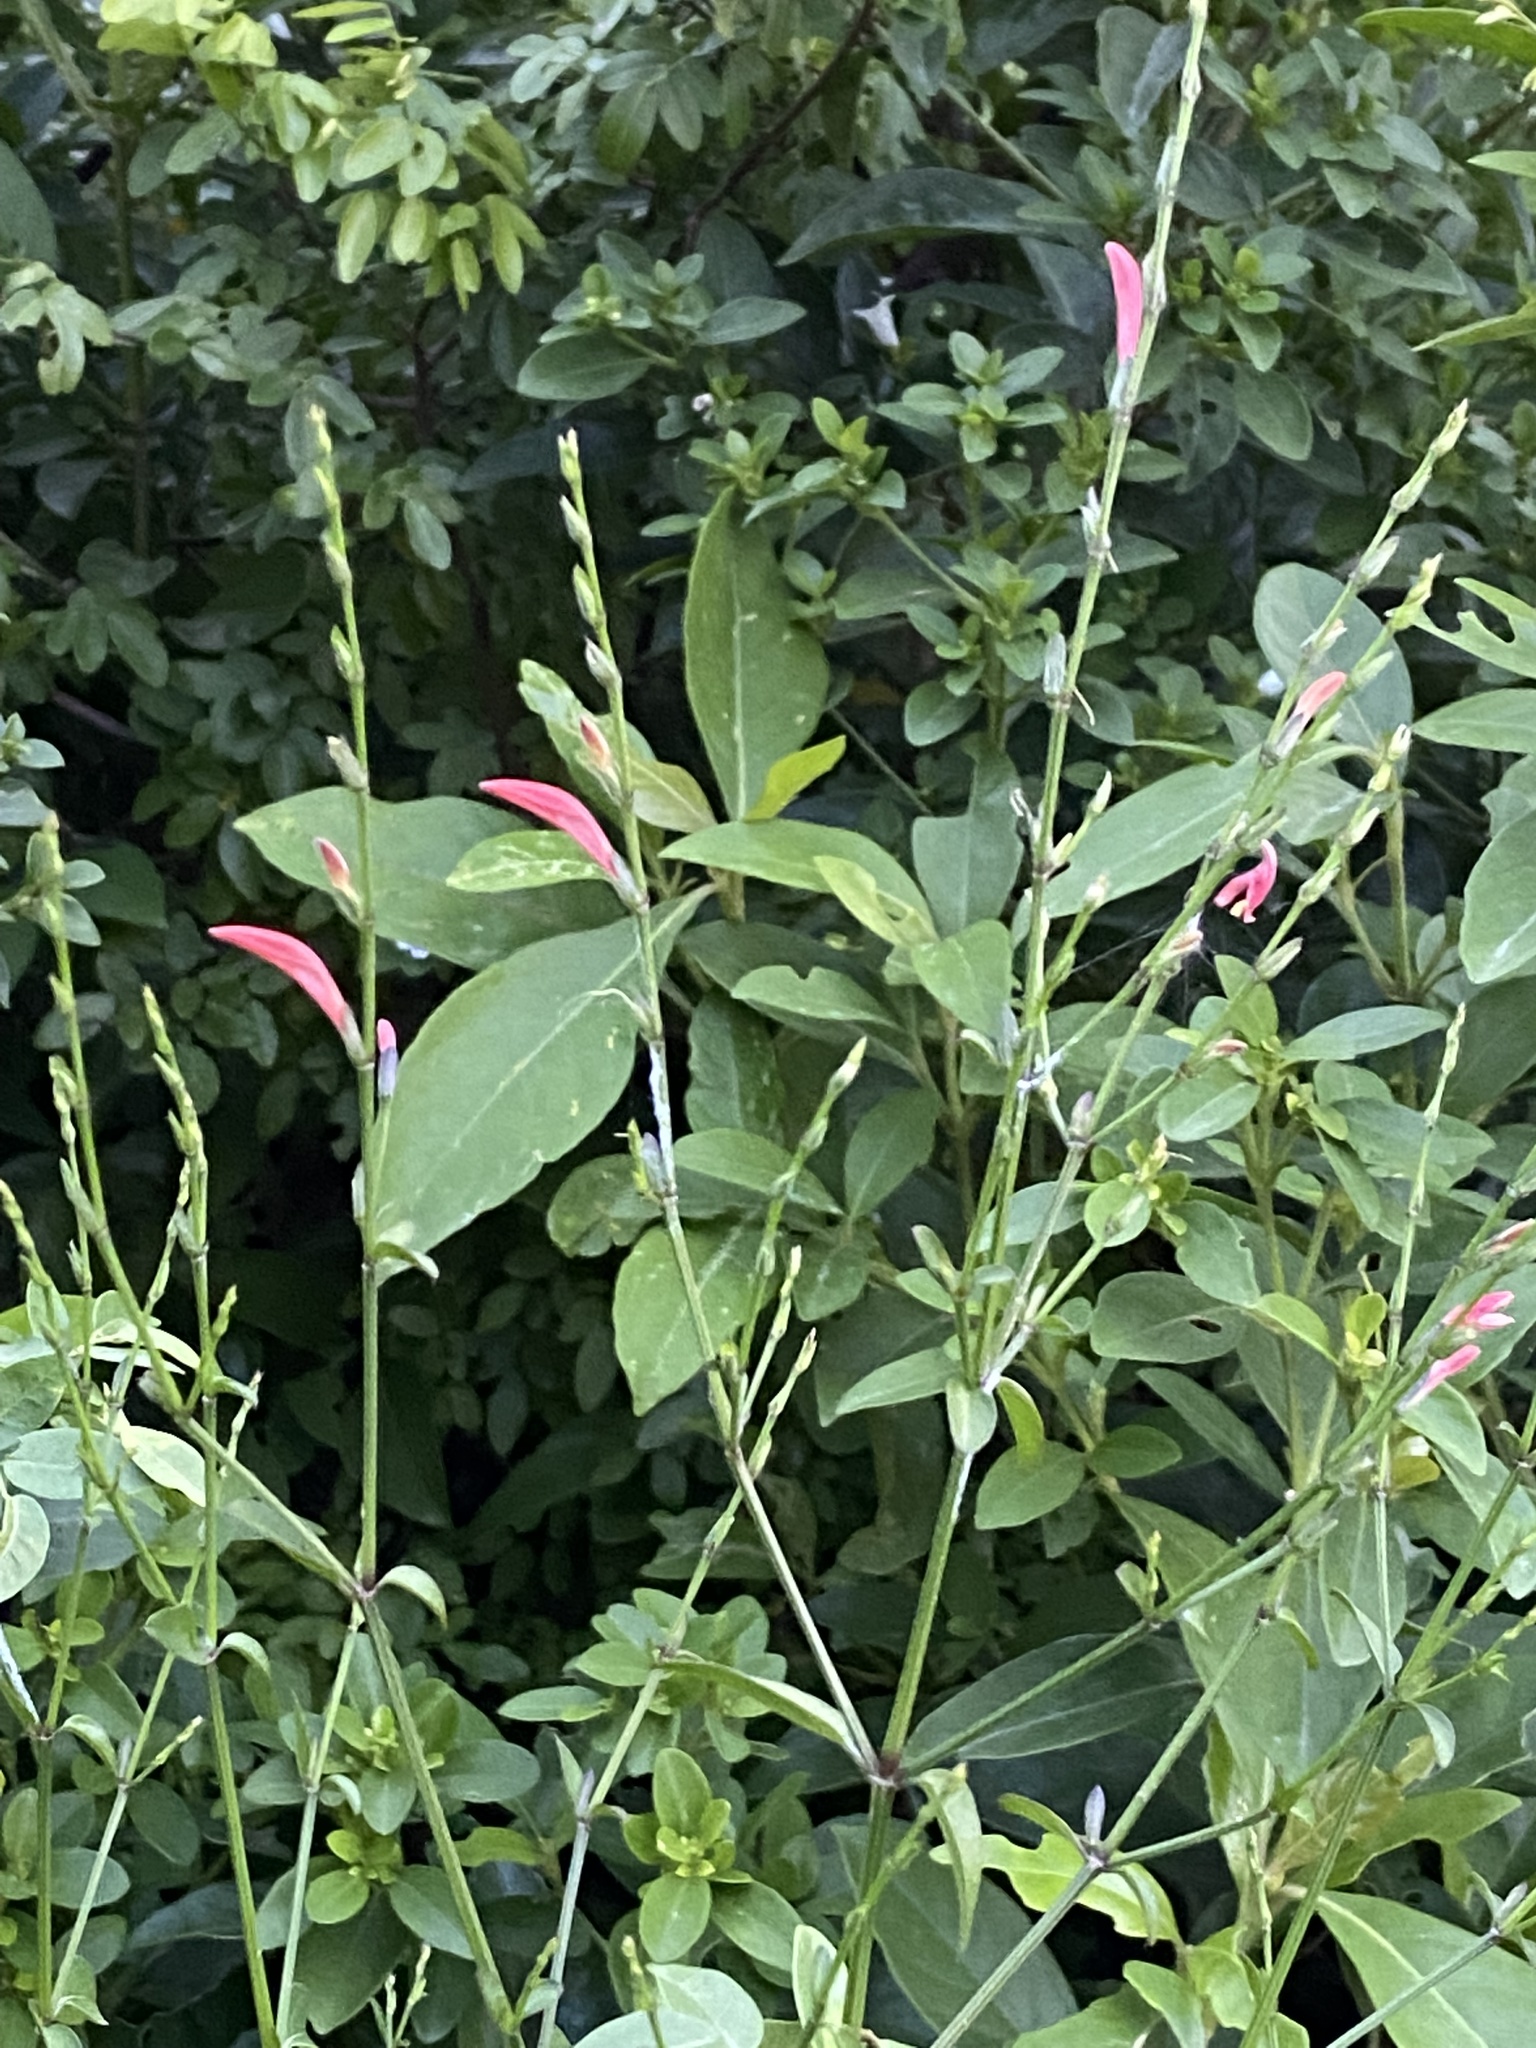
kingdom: Plantae
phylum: Tracheophyta
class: Magnoliopsida
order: Lamiales
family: Acanthaceae
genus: Dicliptera
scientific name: Dicliptera sexangularis
